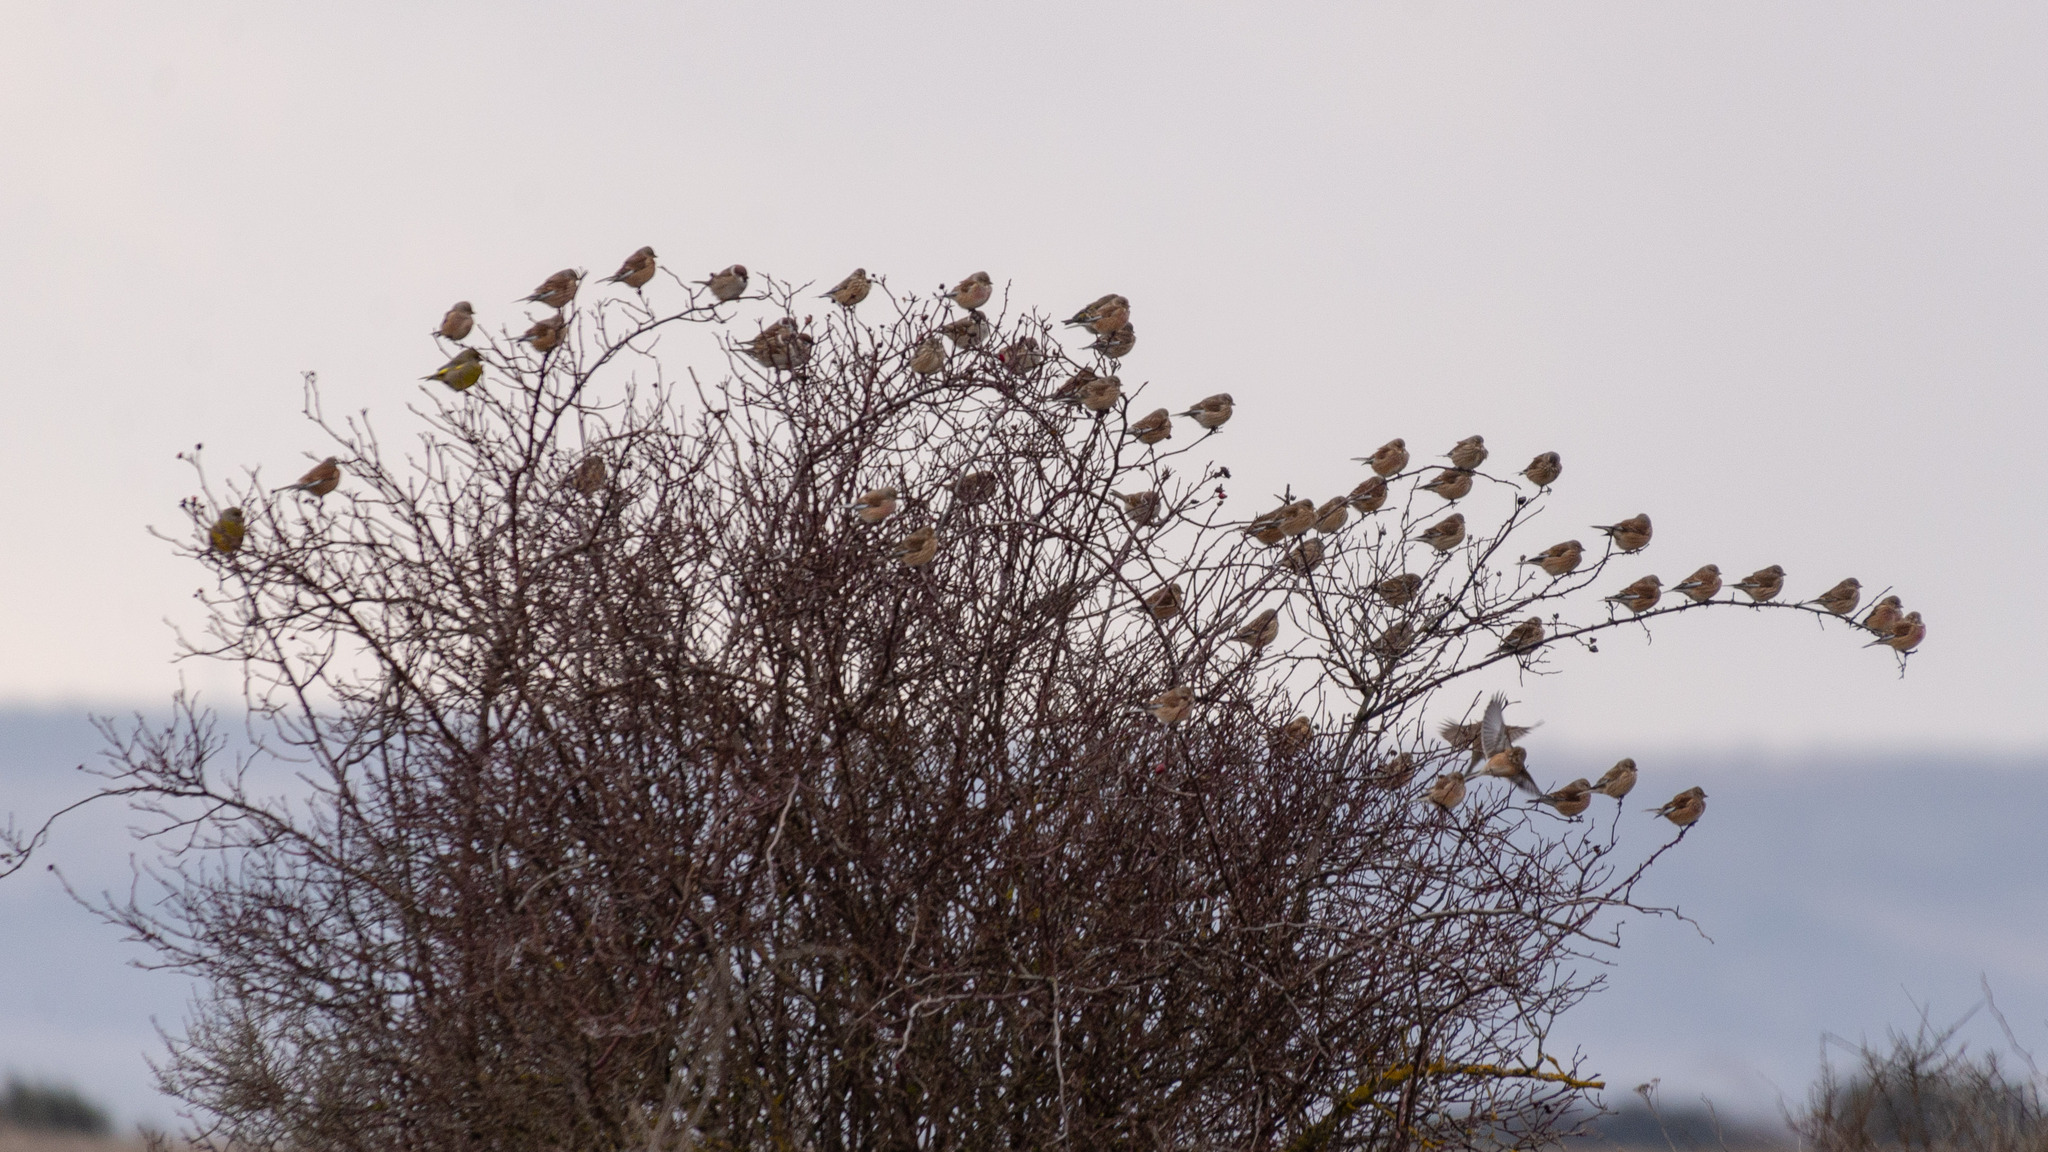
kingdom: Animalia
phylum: Chordata
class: Aves
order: Passeriformes
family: Fringillidae
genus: Linaria
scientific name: Linaria cannabina
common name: Common linnet
